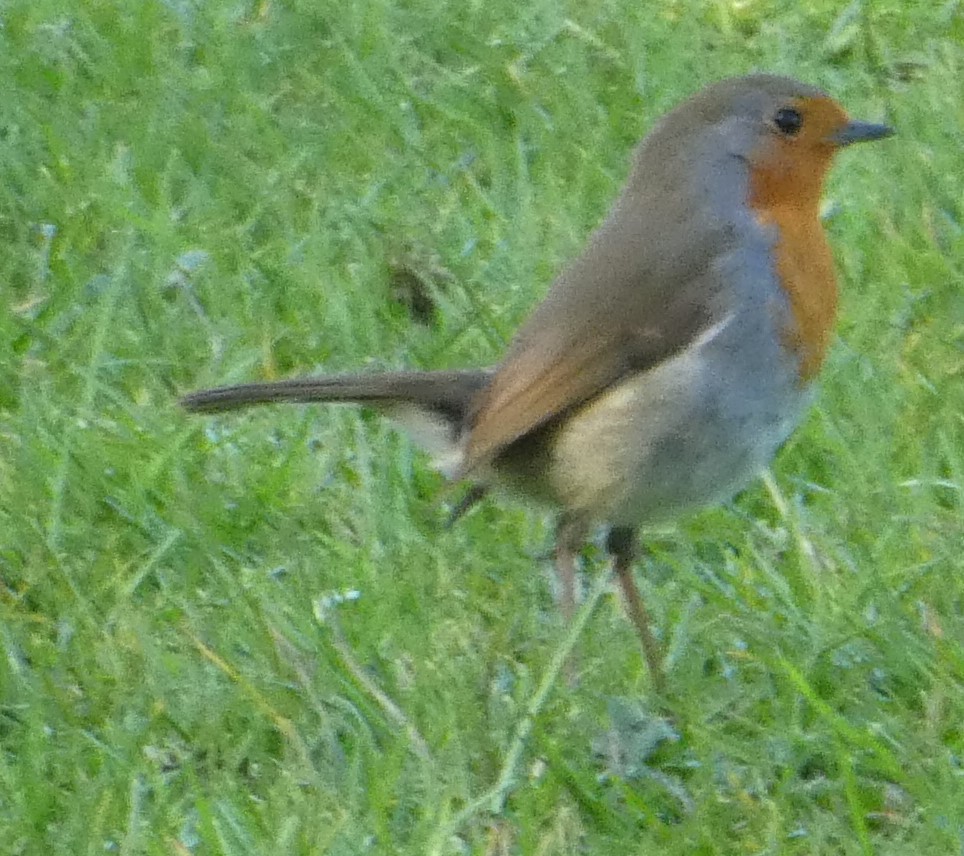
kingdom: Animalia
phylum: Chordata
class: Aves
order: Passeriformes
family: Muscicapidae
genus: Erithacus
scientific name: Erithacus rubecula
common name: European robin
